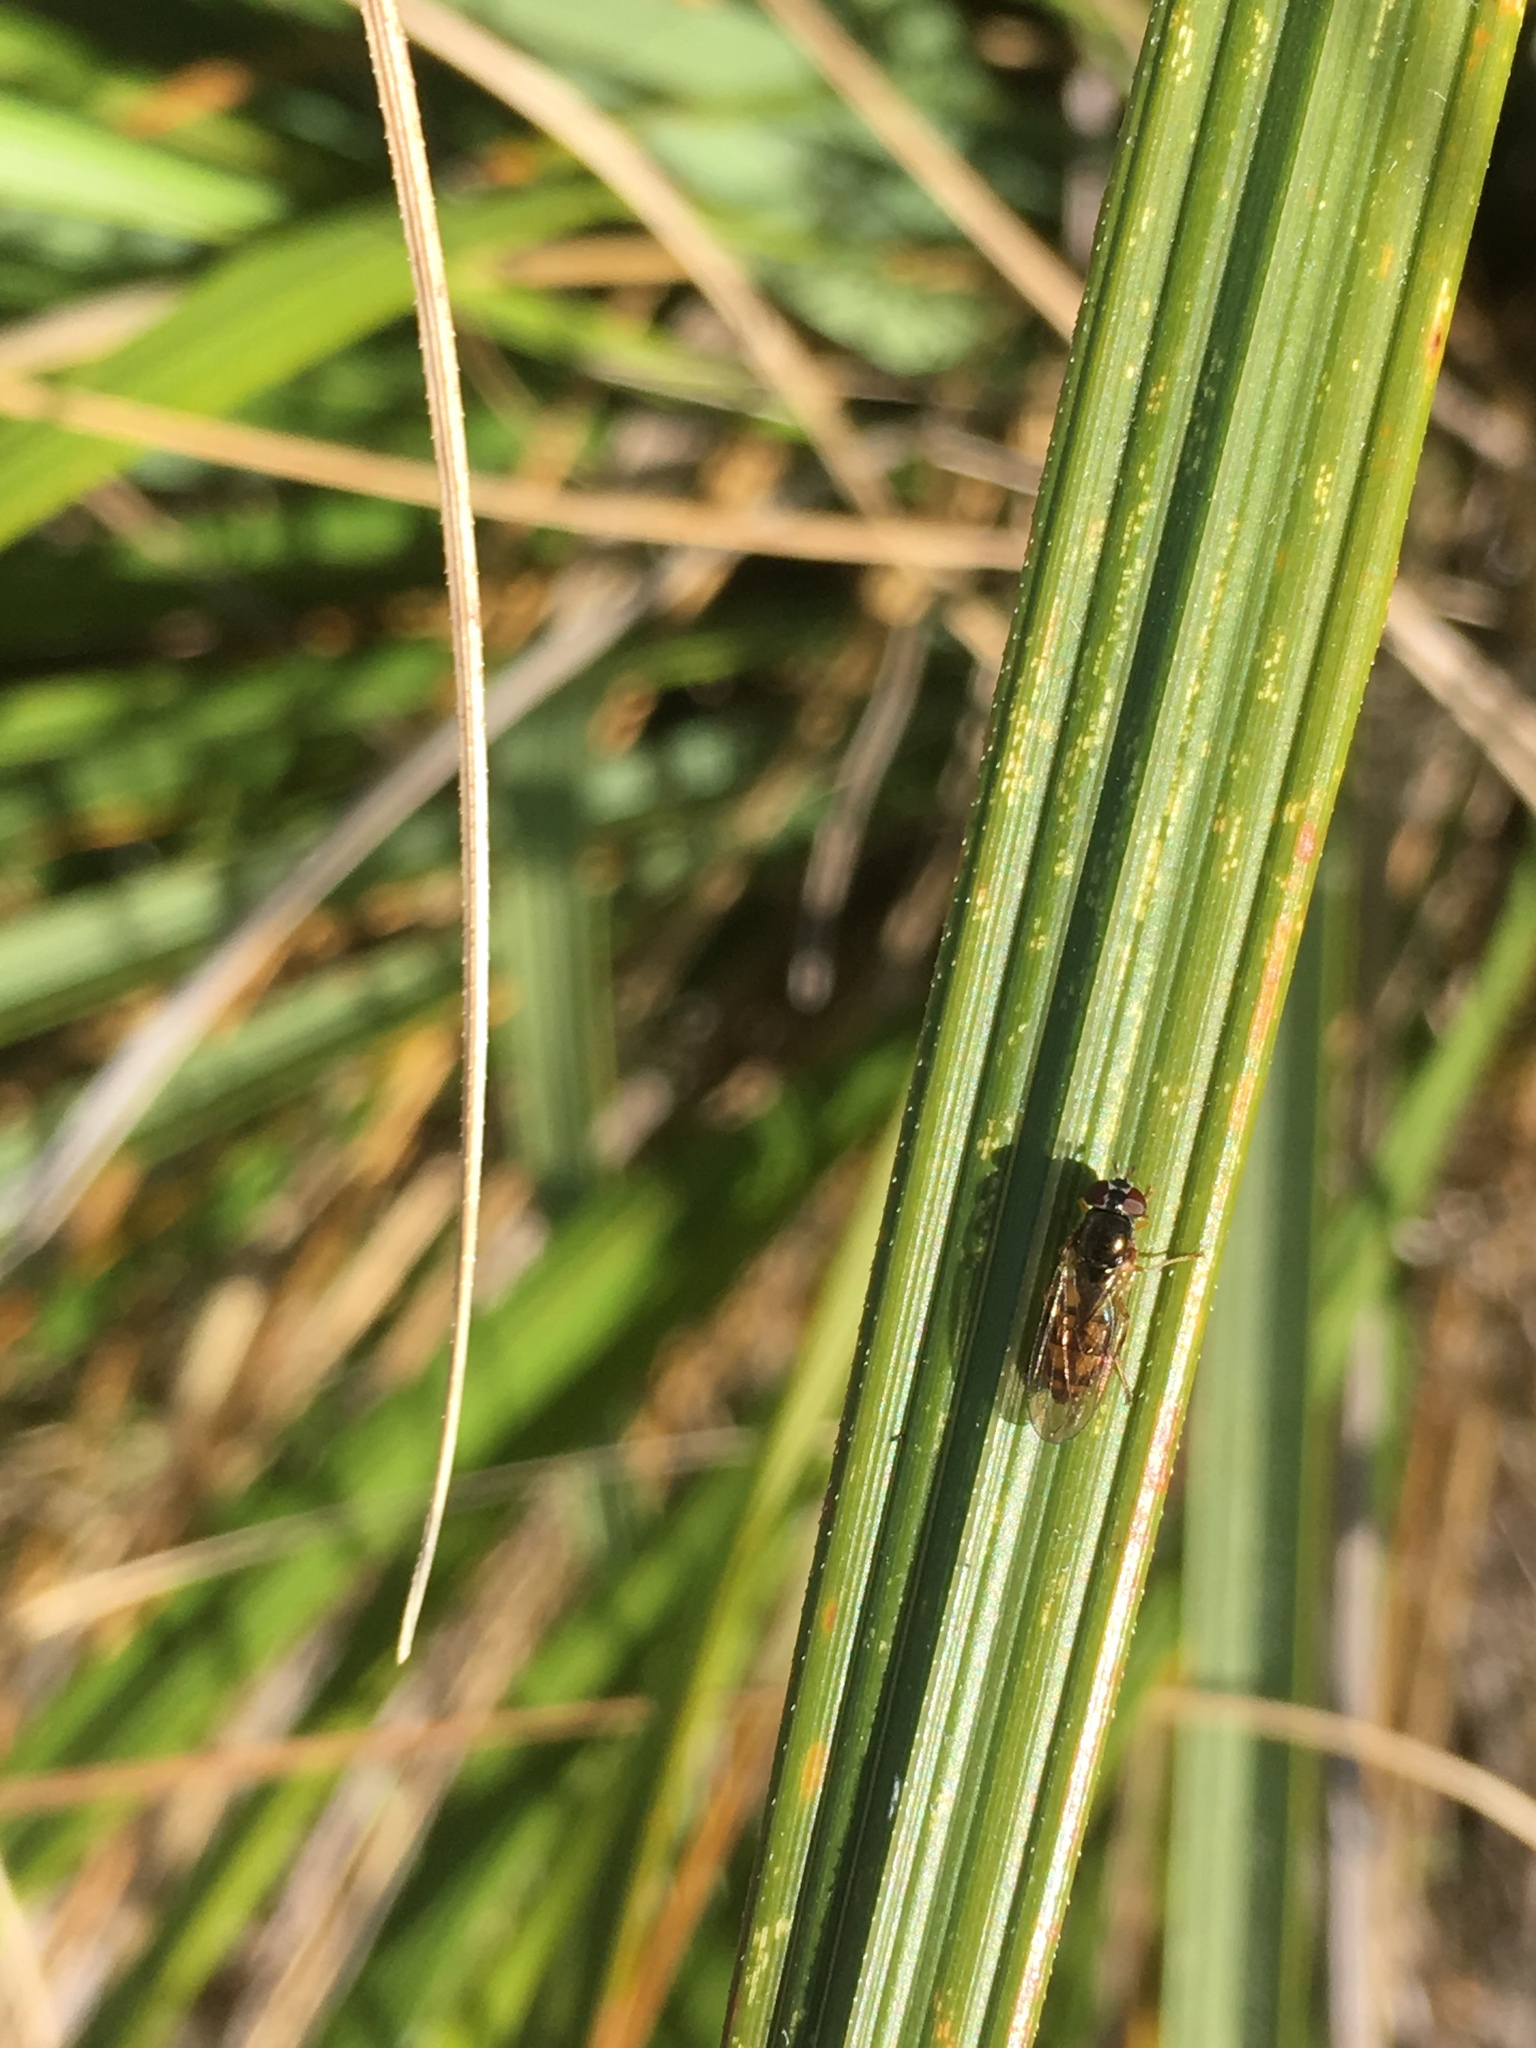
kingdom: Animalia
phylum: Arthropoda
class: Insecta
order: Diptera
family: Syrphidae
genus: Melanostoma
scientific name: Melanostoma fasciatum
